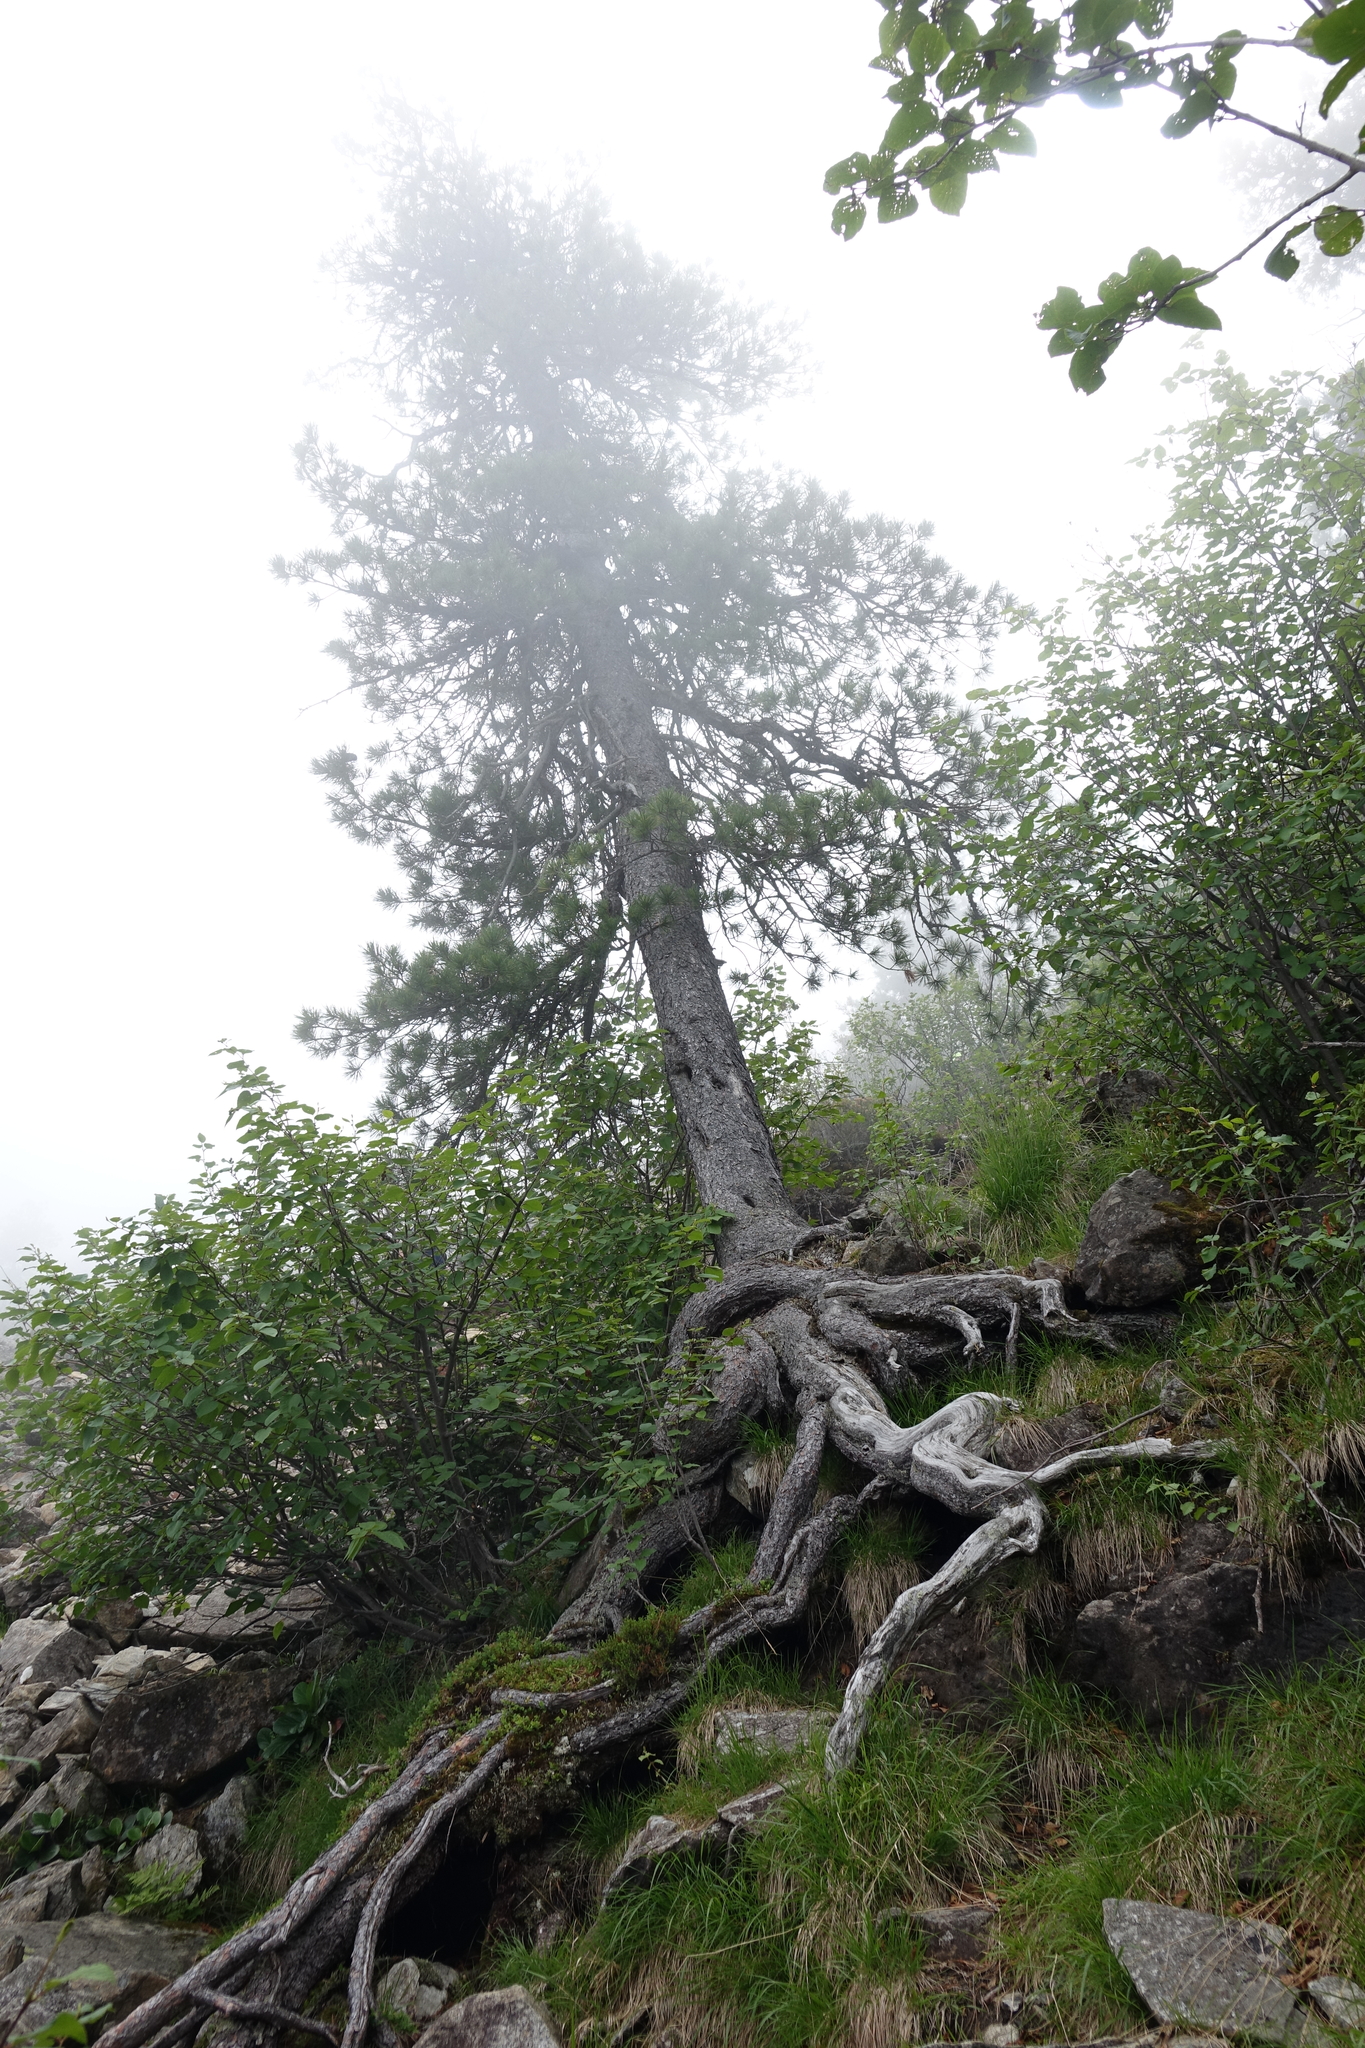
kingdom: Plantae
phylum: Tracheophyta
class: Pinopsida
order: Pinales
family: Pinaceae
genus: Pinus
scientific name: Pinus sibirica
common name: Siberian pine
